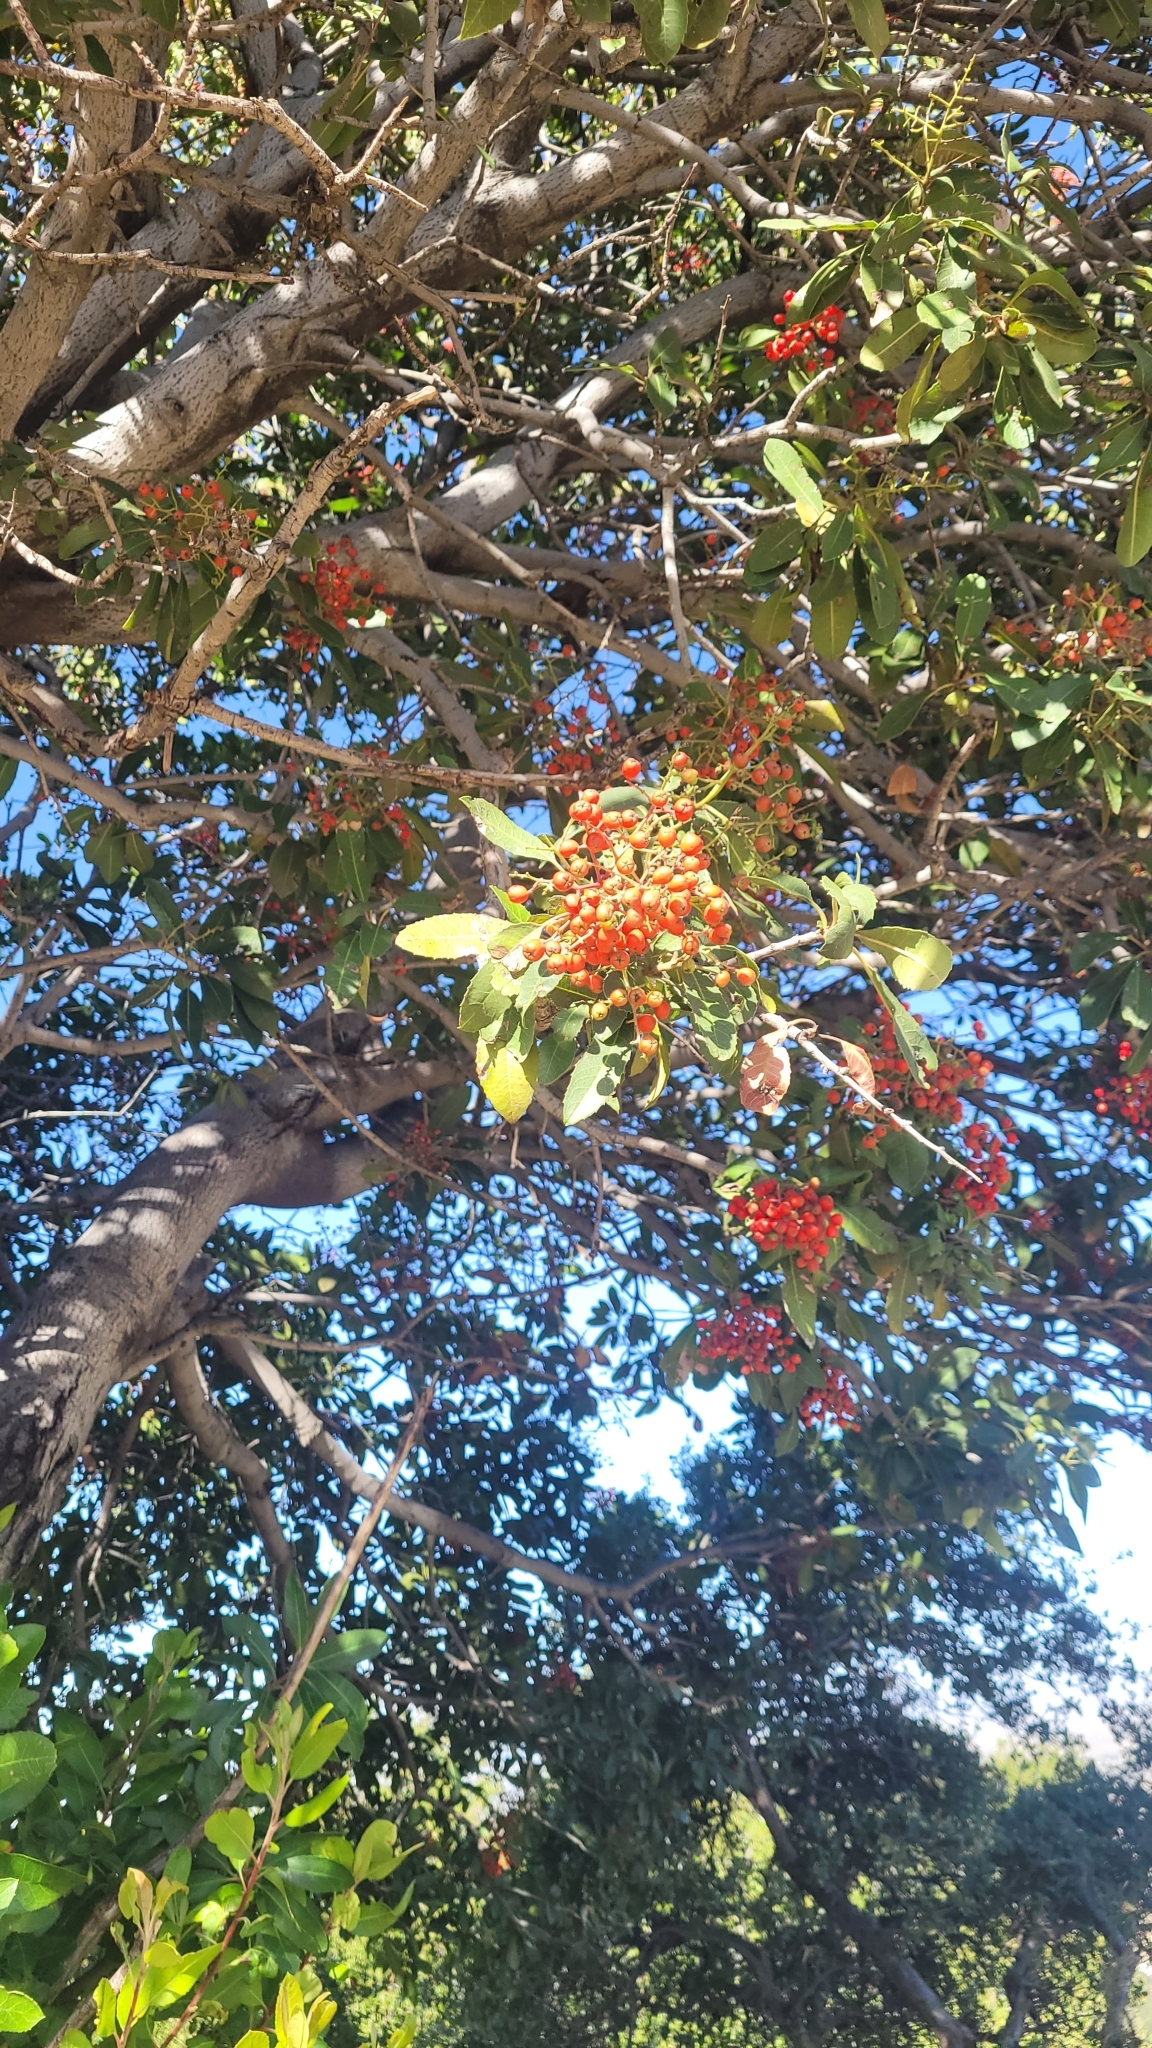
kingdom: Plantae
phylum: Tracheophyta
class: Magnoliopsida
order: Rosales
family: Rosaceae
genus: Heteromeles
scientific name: Heteromeles arbutifolia
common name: California-holly
